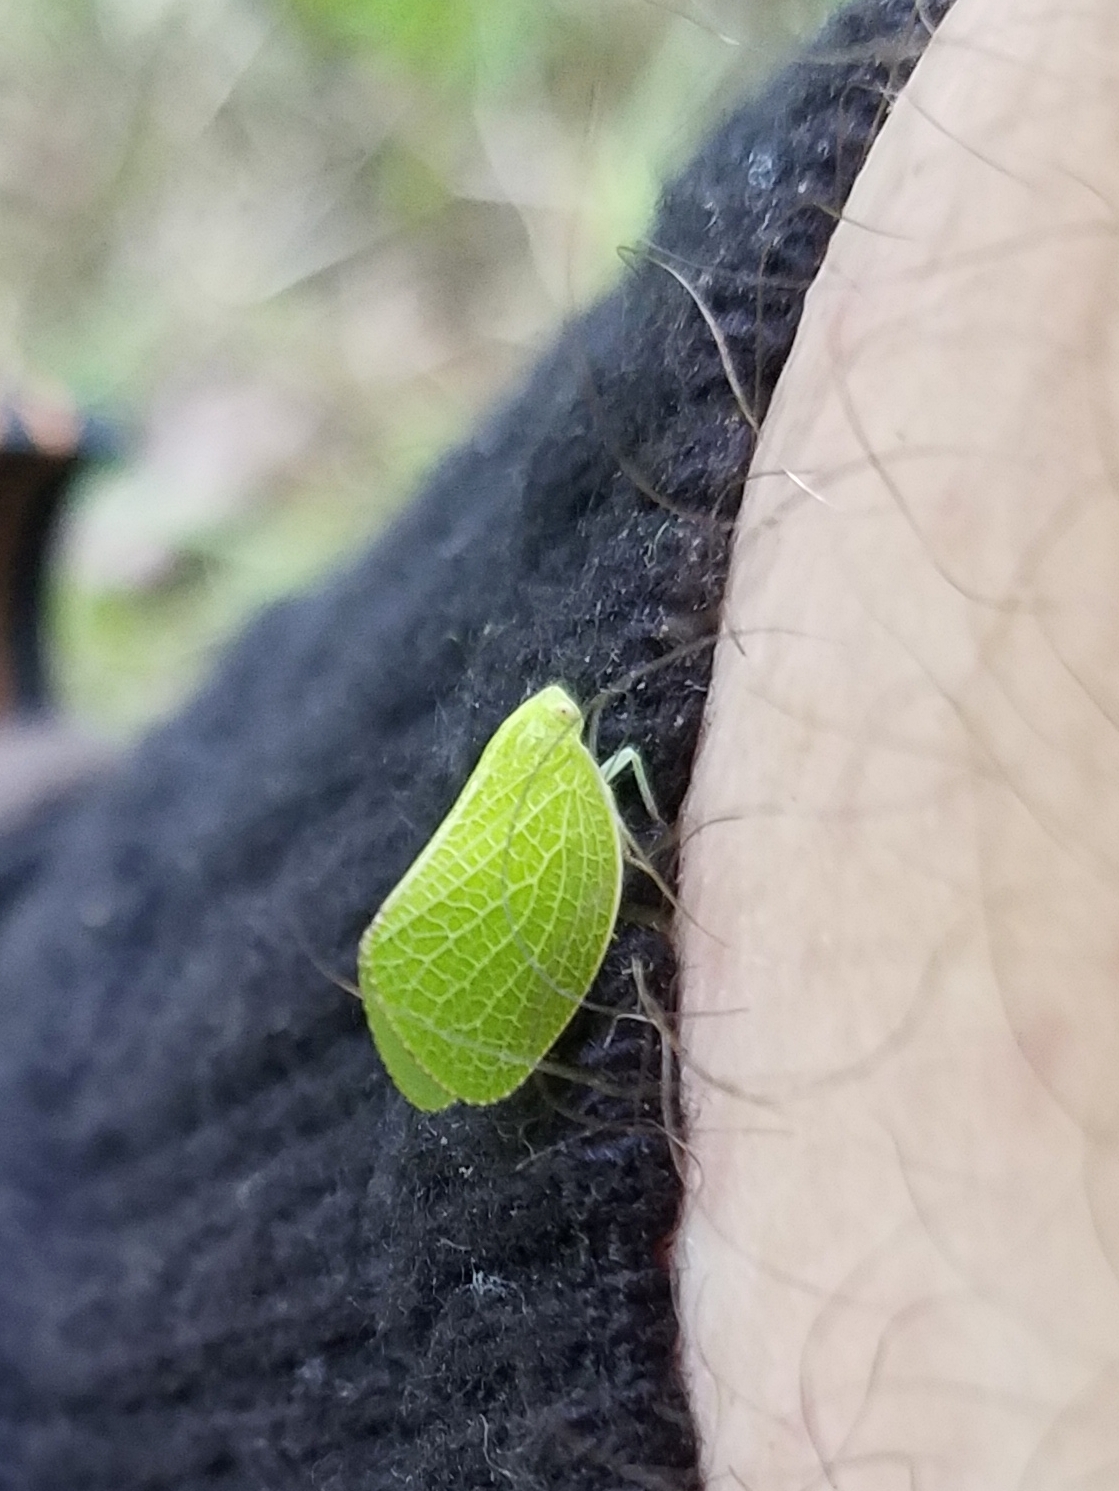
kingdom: Animalia
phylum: Arthropoda
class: Insecta
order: Hemiptera
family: Acanaloniidae
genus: Acanalonia
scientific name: Acanalonia conica
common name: Green cone-headed planthopper
